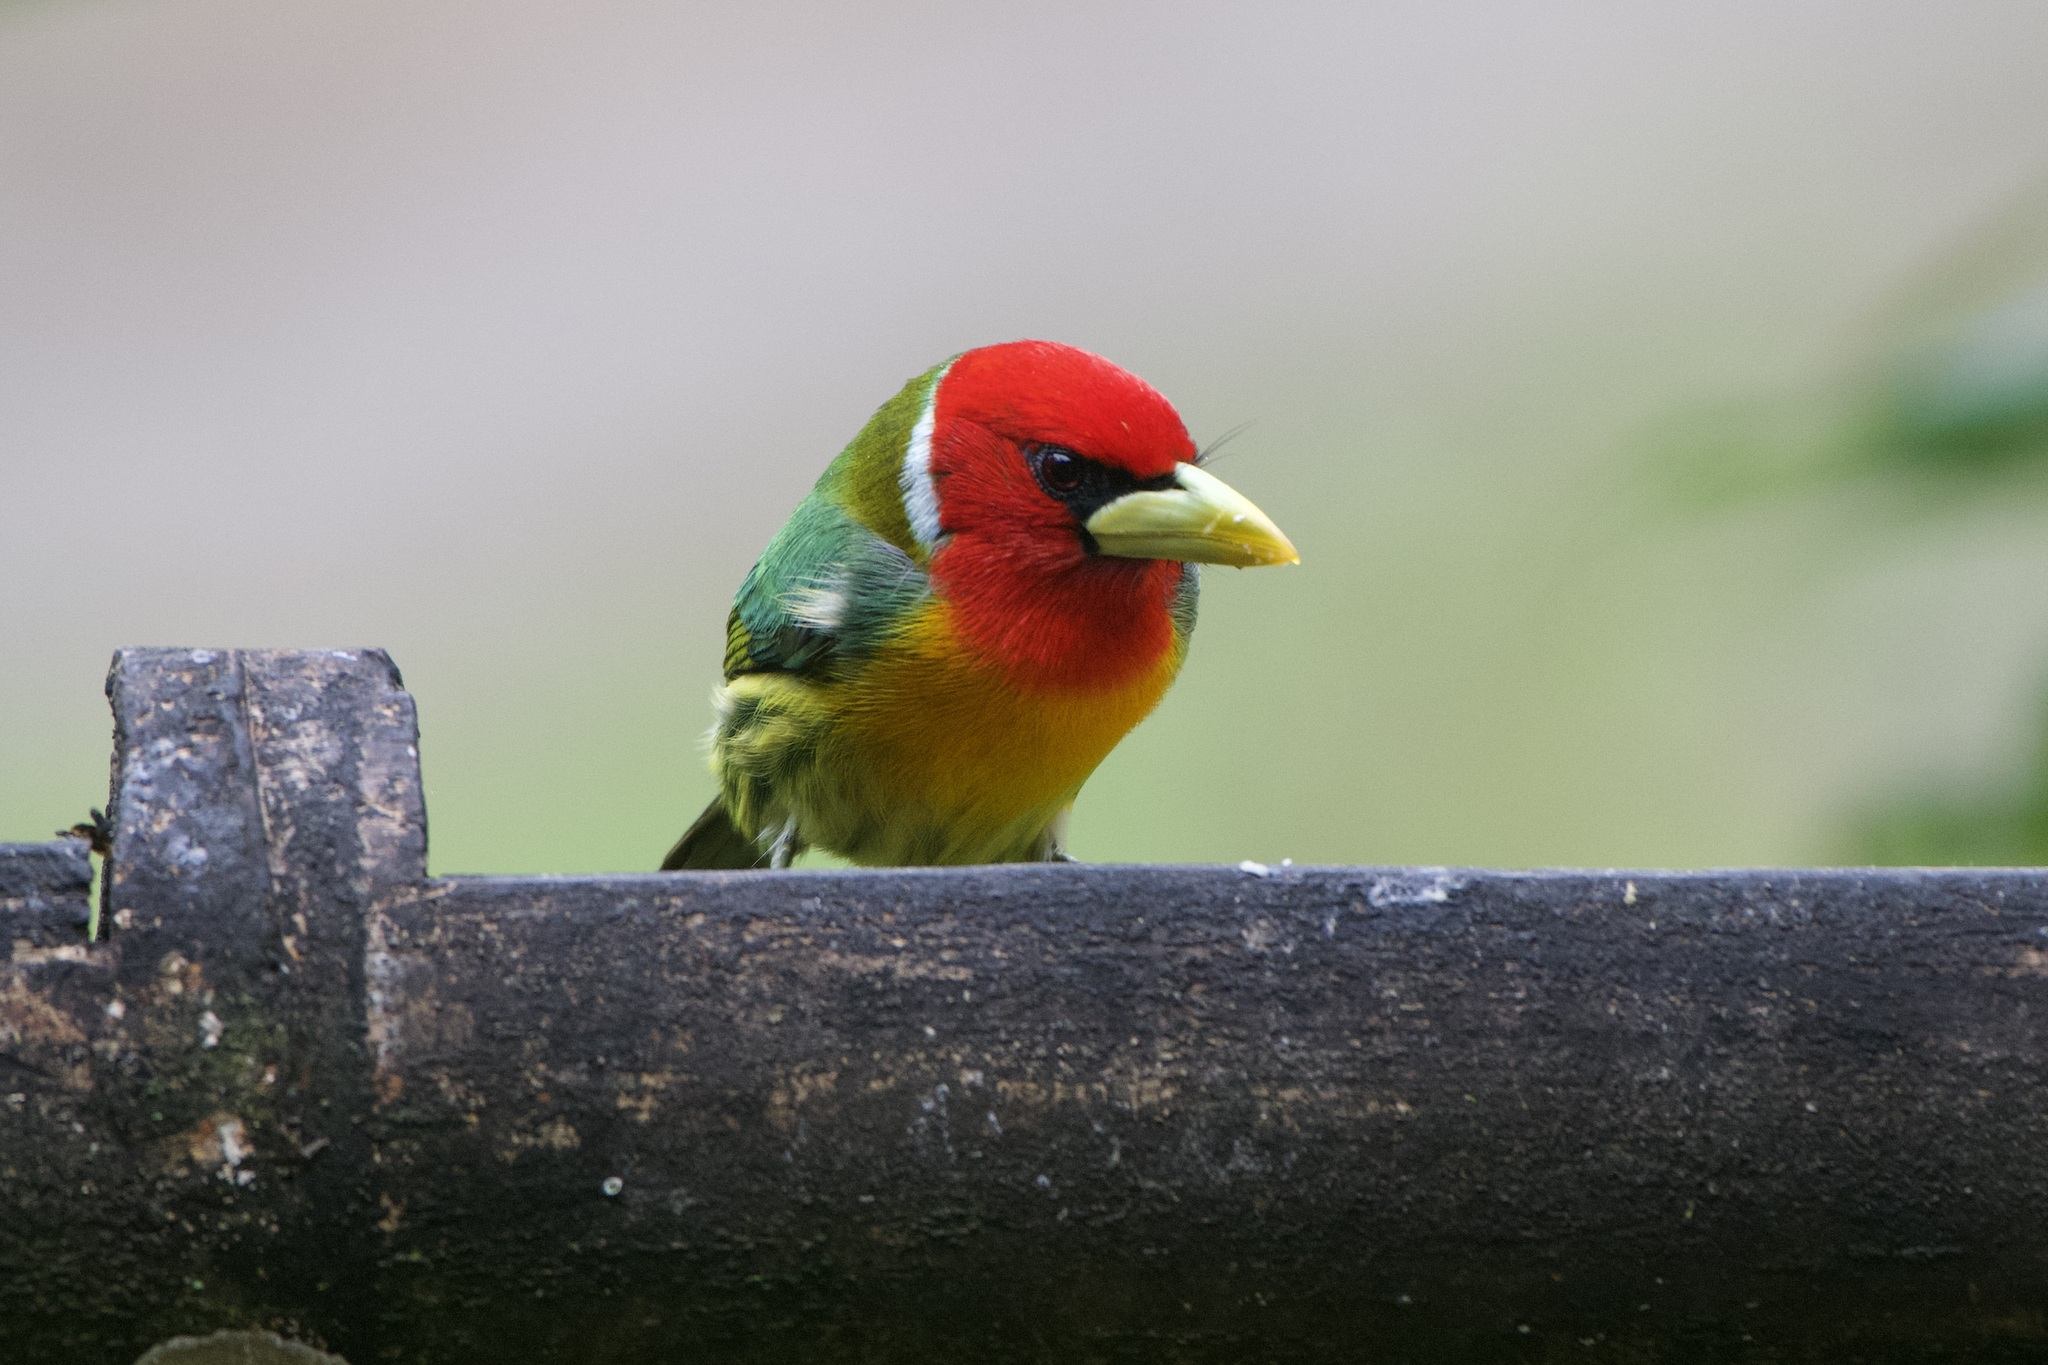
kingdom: Animalia
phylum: Chordata
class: Aves
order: Piciformes
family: Capitonidae
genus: Eubucco
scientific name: Eubucco bourcierii
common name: Red-headed barbet
